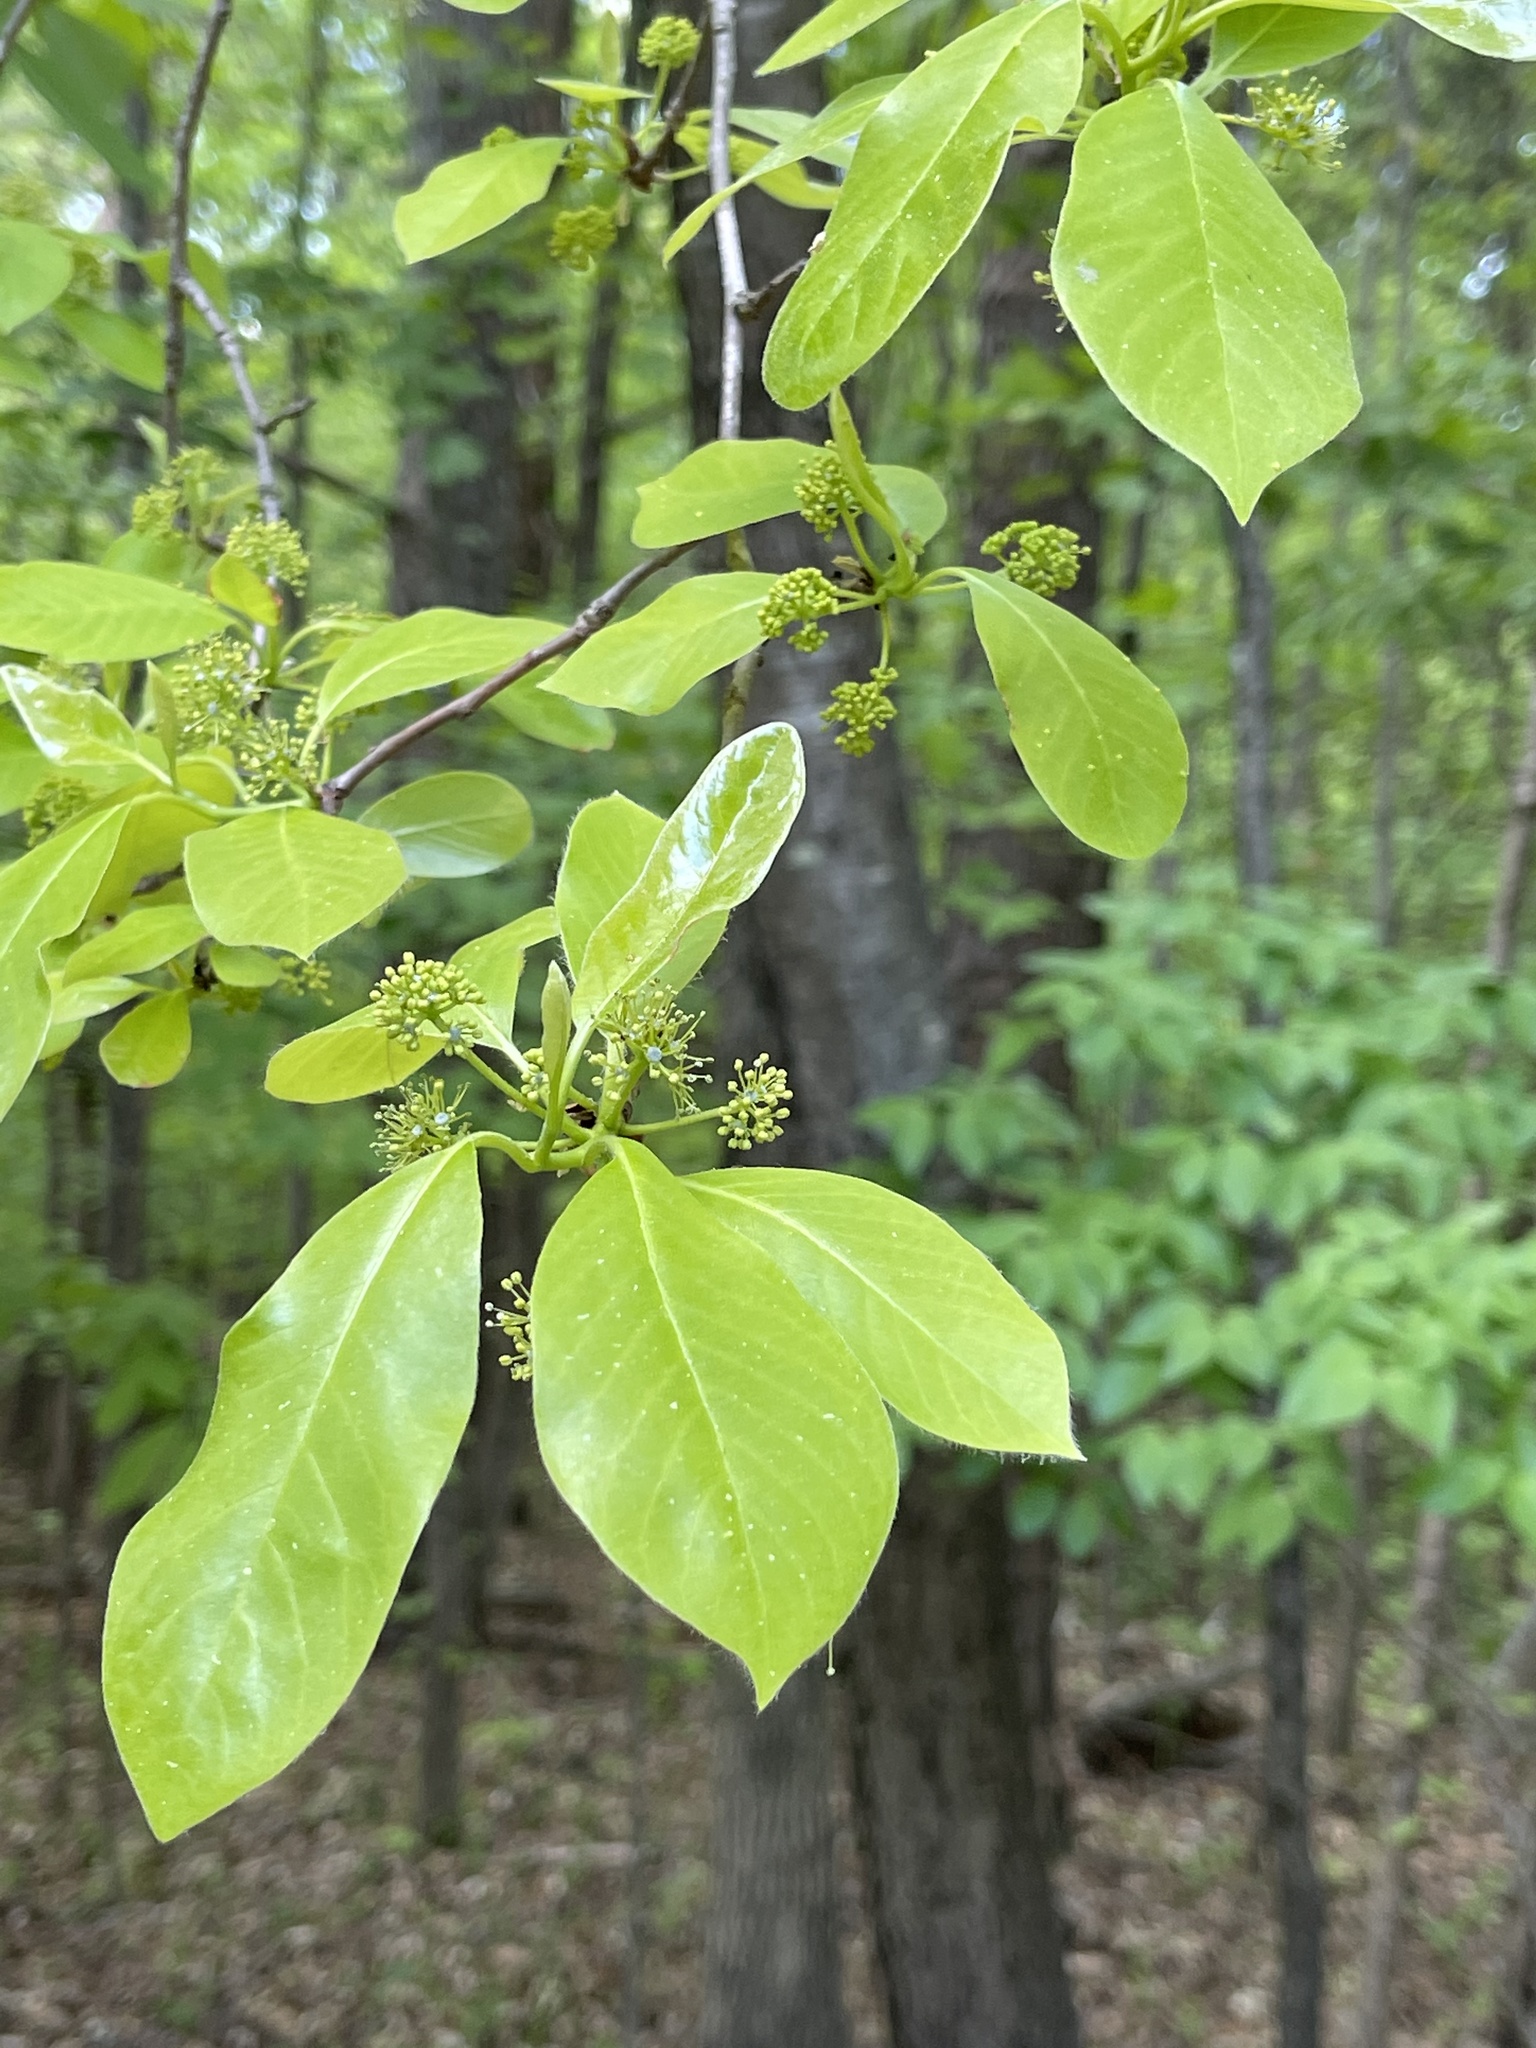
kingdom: Plantae
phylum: Tracheophyta
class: Magnoliopsida
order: Cornales
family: Nyssaceae
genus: Nyssa
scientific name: Nyssa sylvatica
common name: Black tupelo
